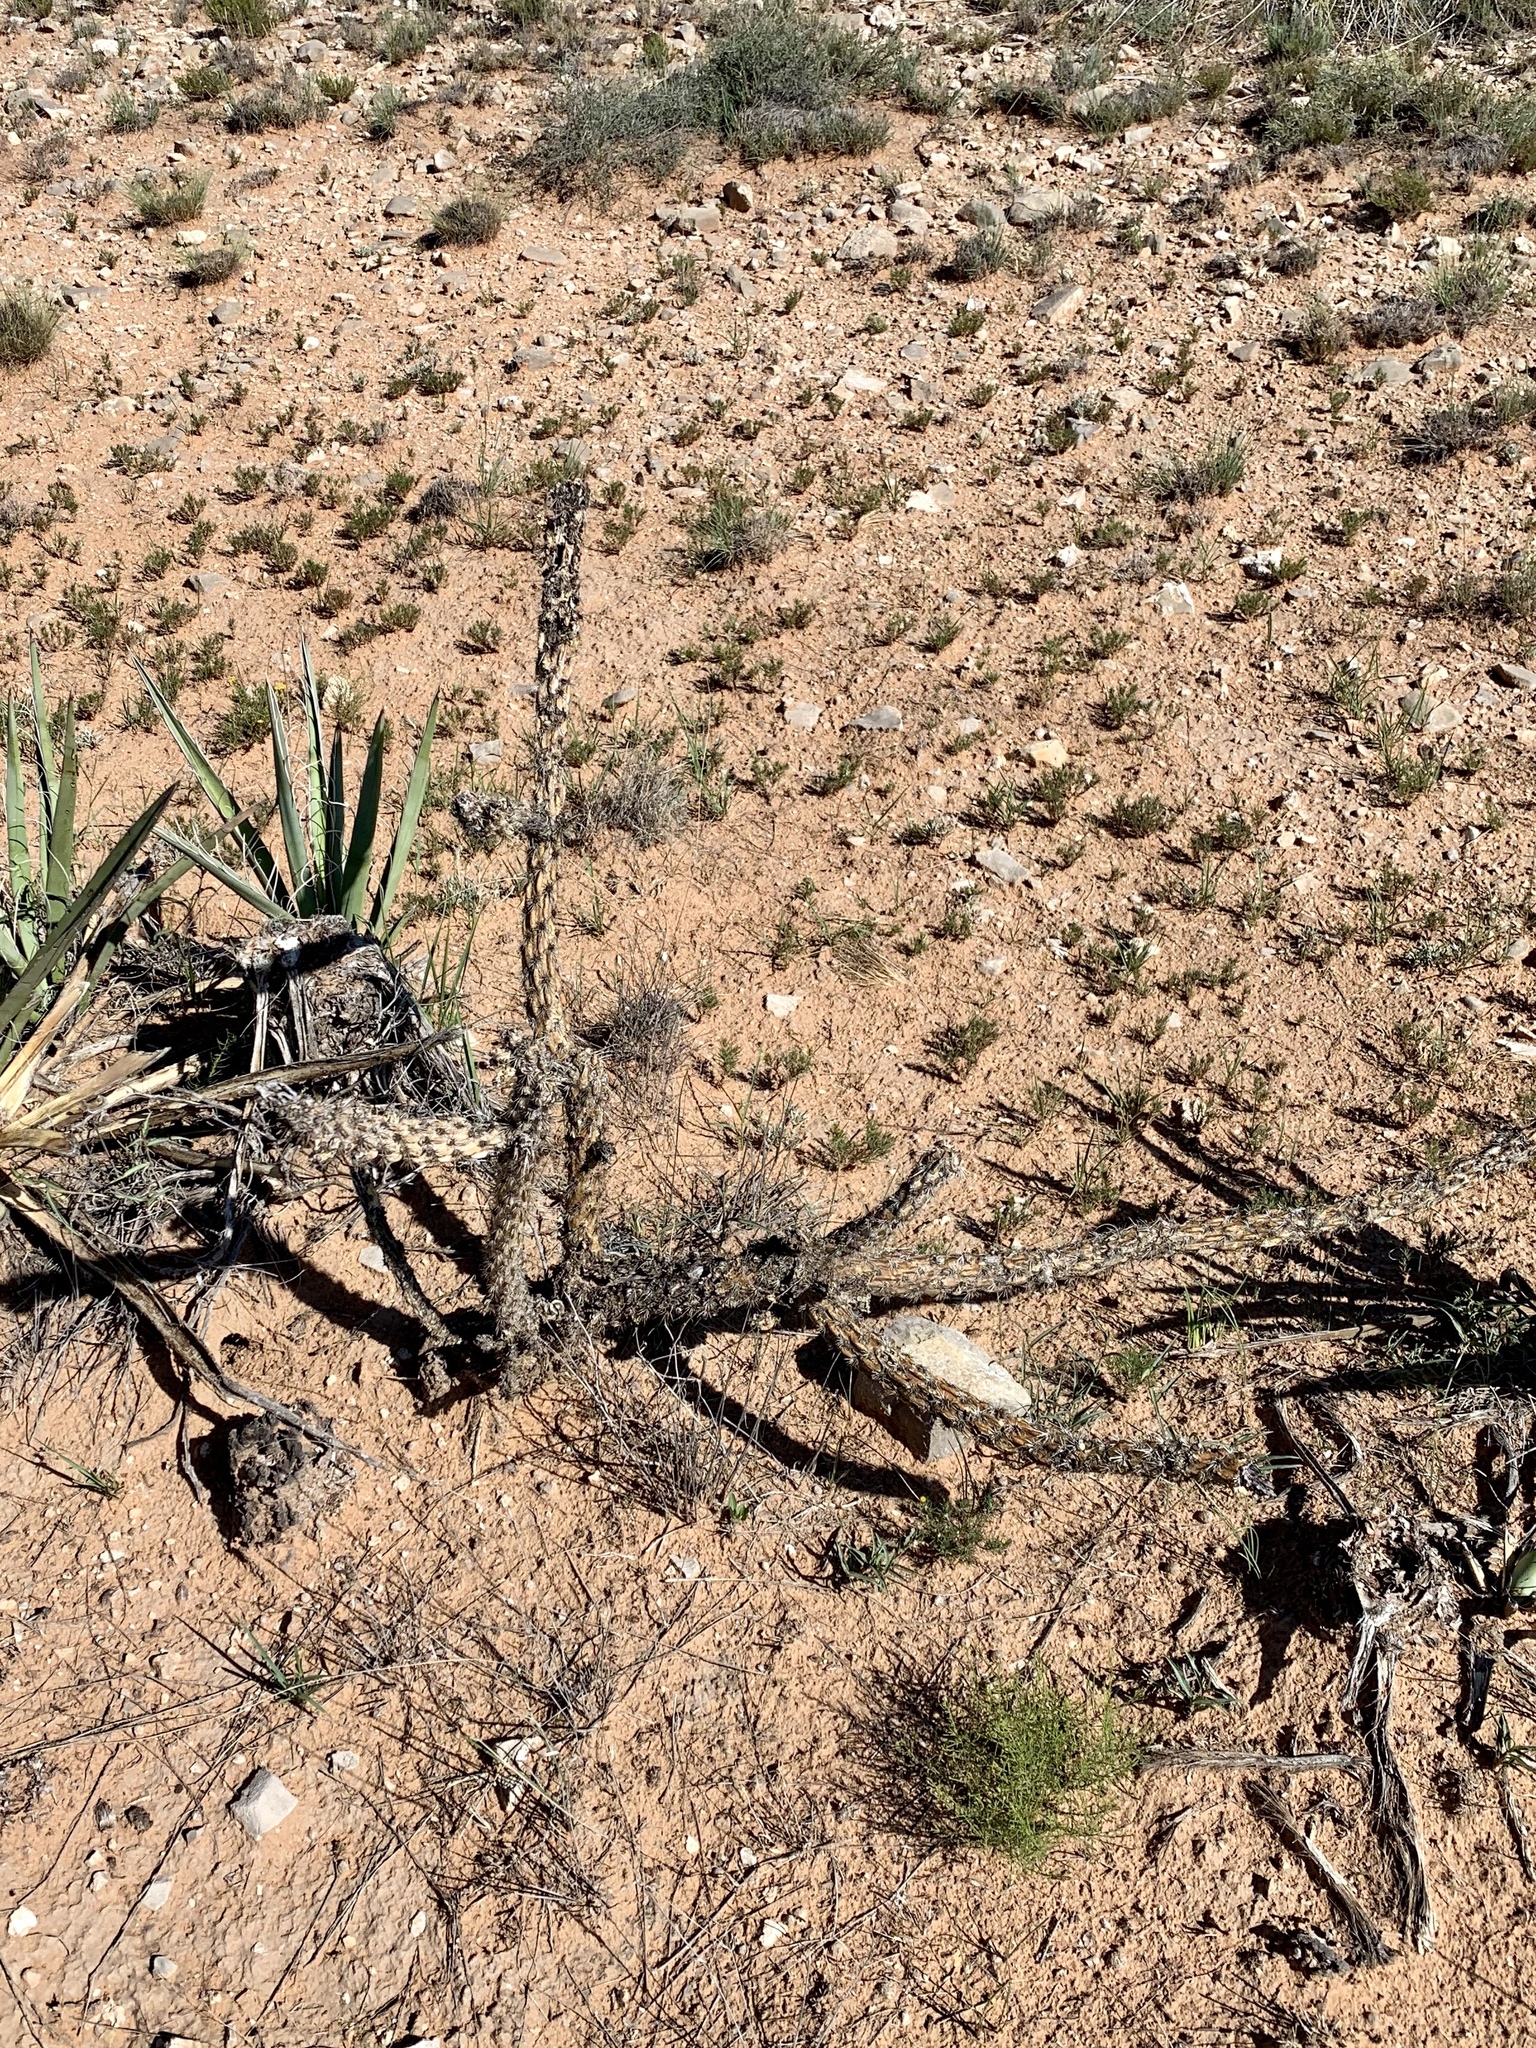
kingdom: Plantae
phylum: Tracheophyta
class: Magnoliopsida
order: Caryophyllales
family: Cactaceae
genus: Cylindropuntia
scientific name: Cylindropuntia imbricata
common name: Candelabrum cactus
